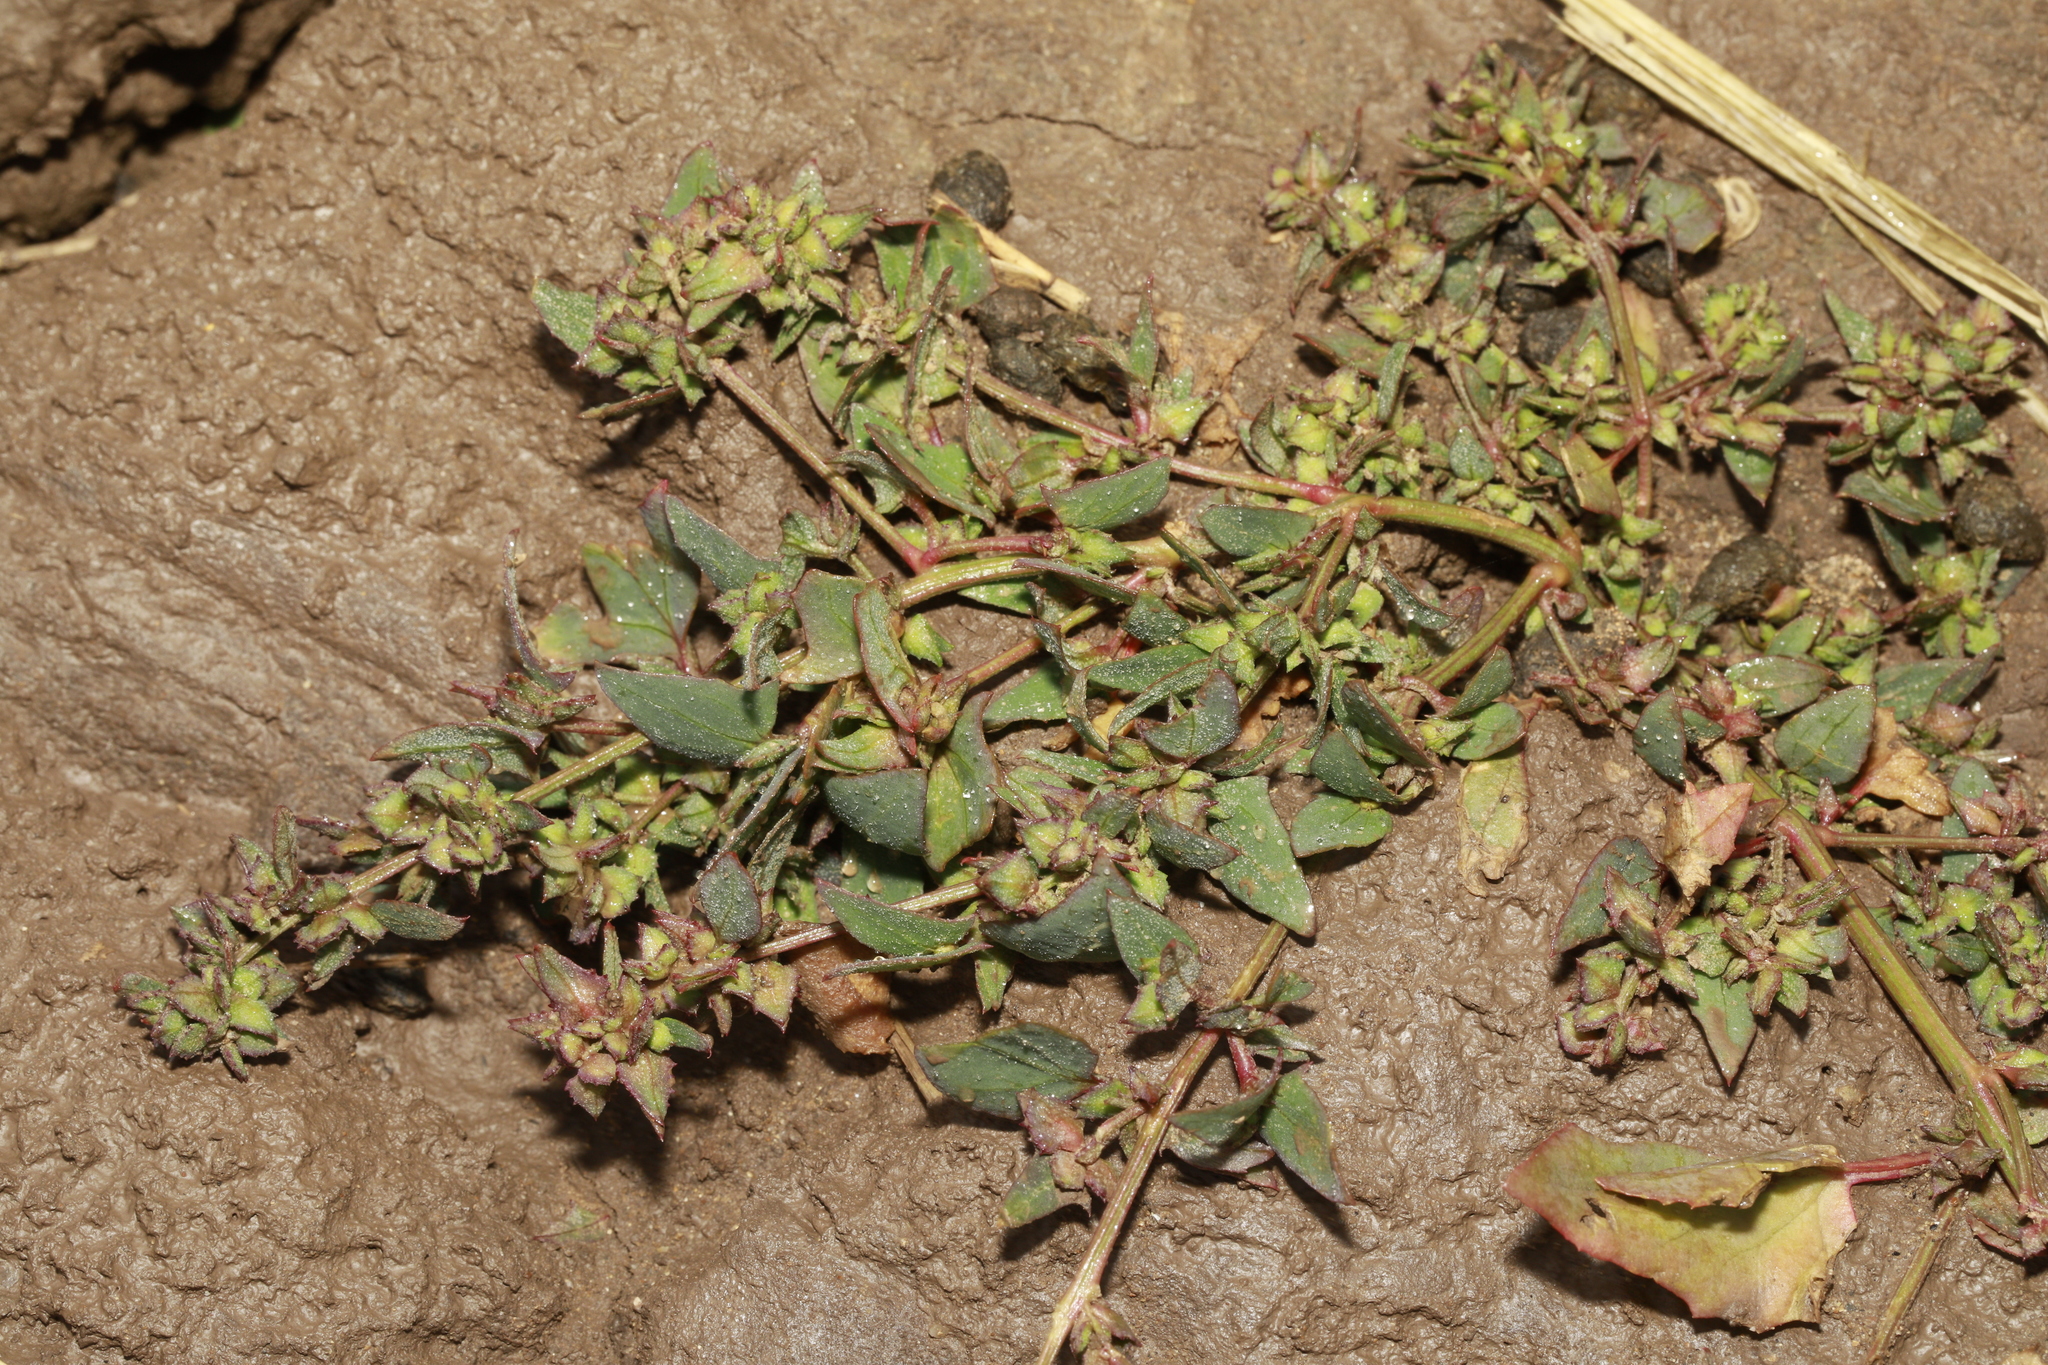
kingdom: Plantae
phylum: Tracheophyta
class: Magnoliopsida
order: Caryophyllales
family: Amaranthaceae
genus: Atriplex
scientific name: Atriplex prostrata
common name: Spear-leaved orache
